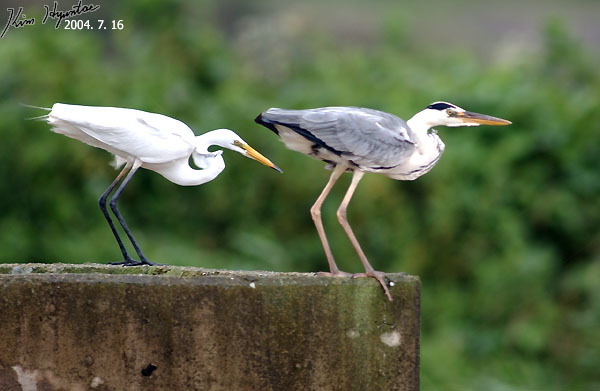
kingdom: Animalia
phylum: Chordata
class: Aves
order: Pelecaniformes
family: Ardeidae
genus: Ardea
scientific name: Ardea cinerea
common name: Grey heron
